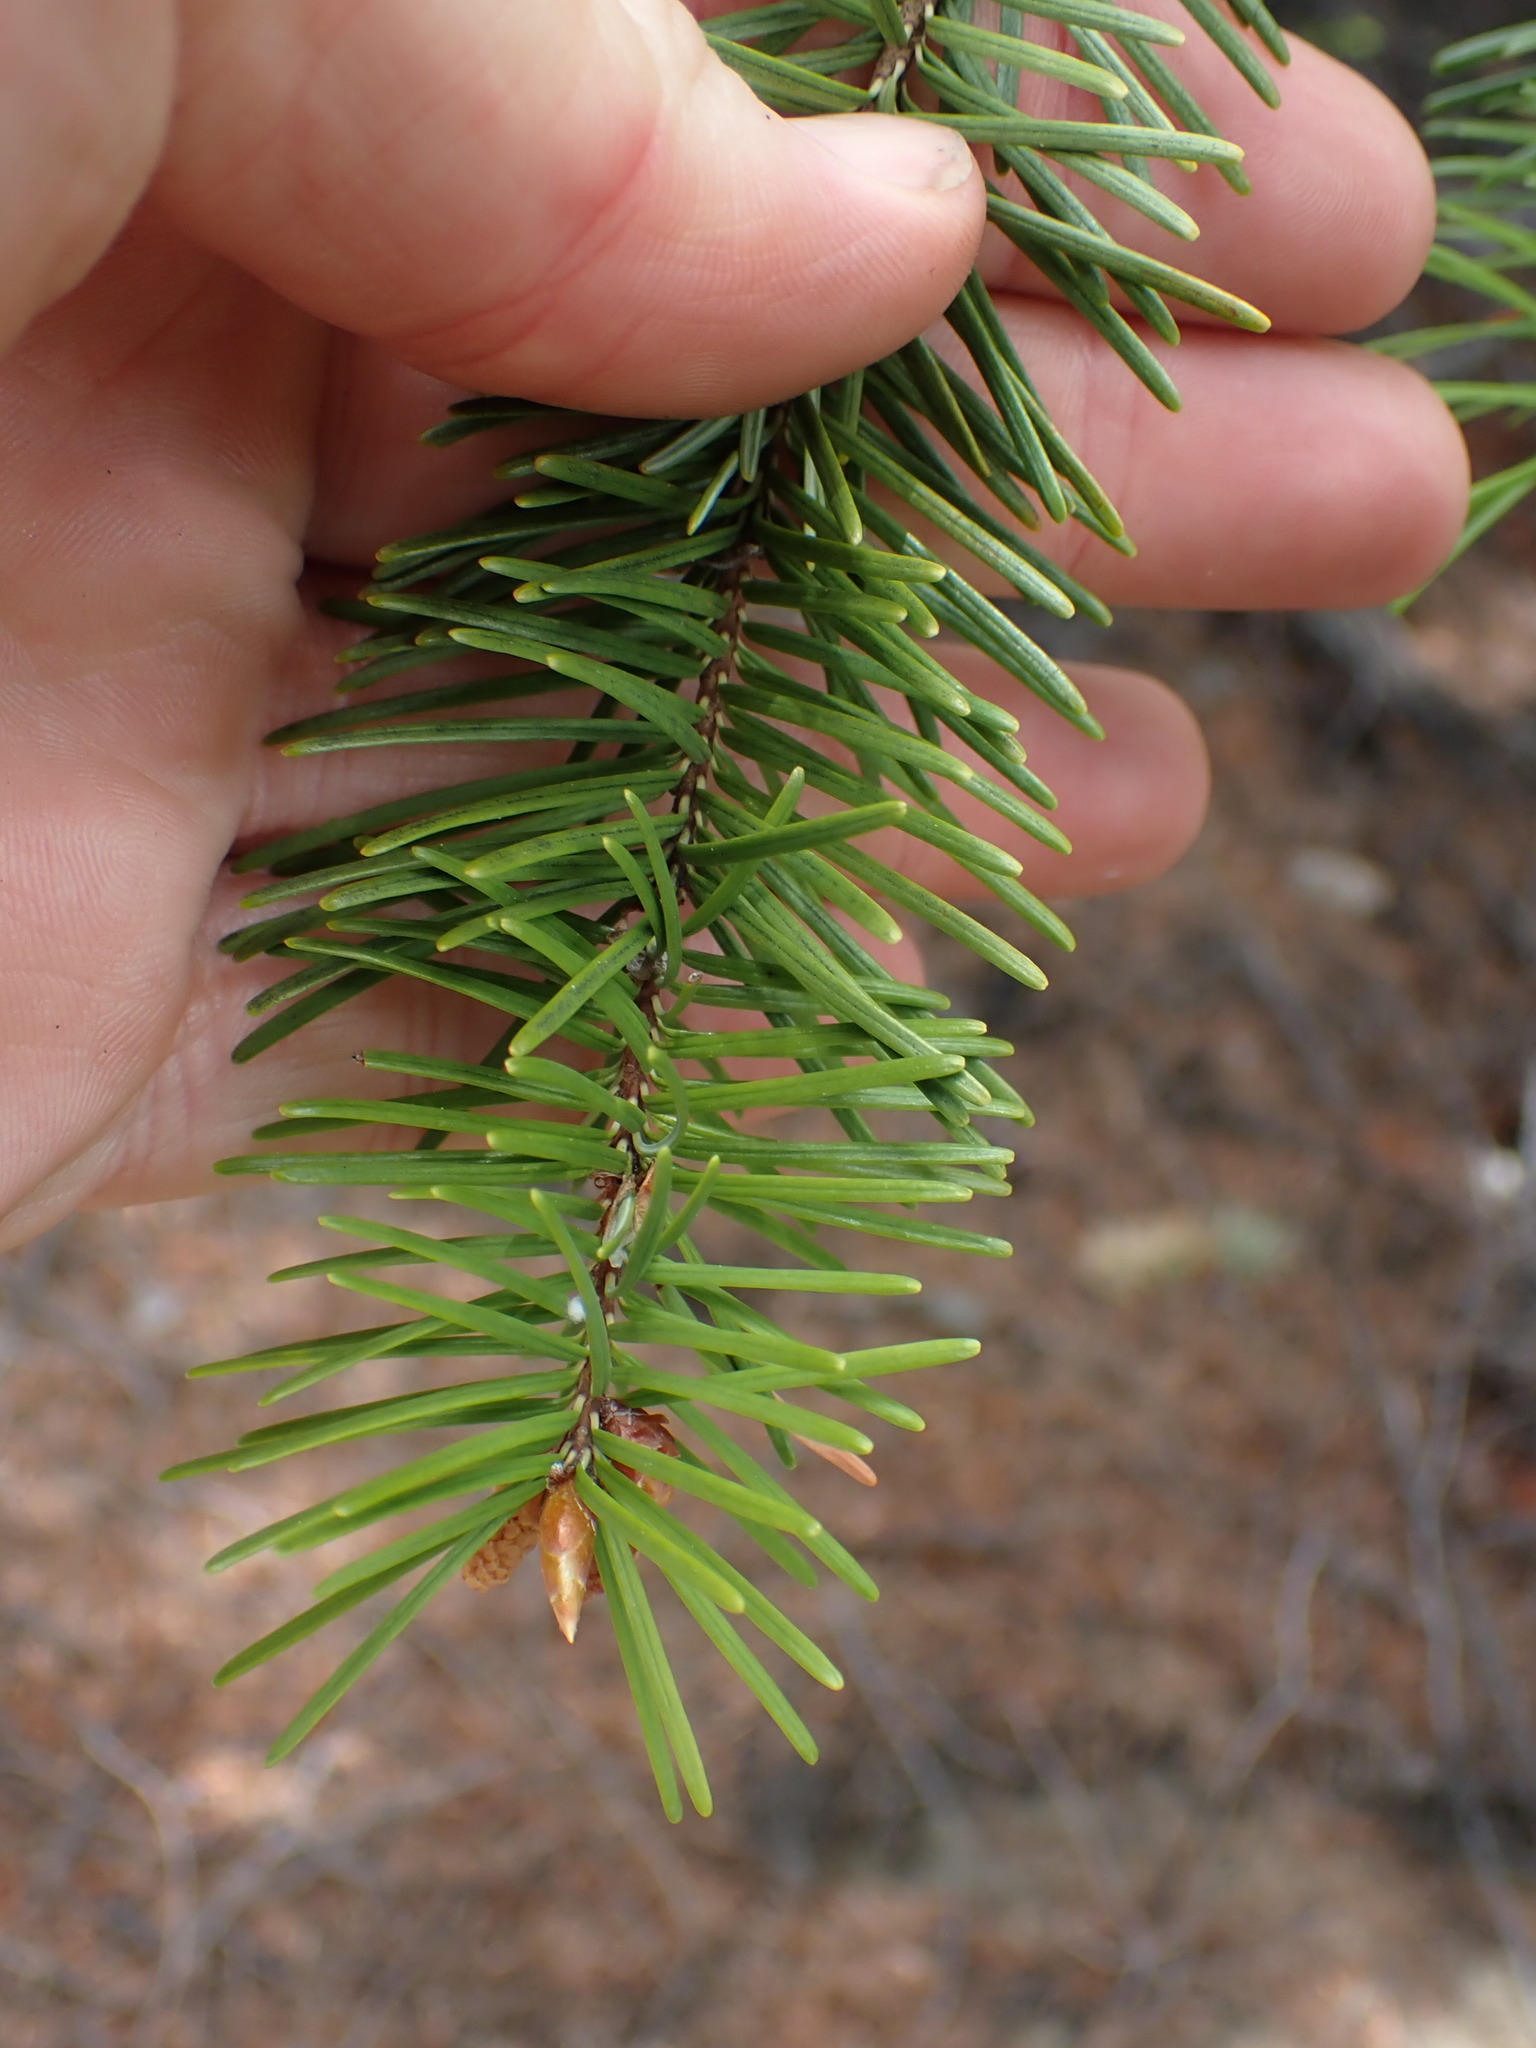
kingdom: Plantae
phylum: Tracheophyta
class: Pinopsida
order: Pinales
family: Pinaceae
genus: Pseudotsuga
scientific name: Pseudotsuga menziesii
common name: Douglas fir
